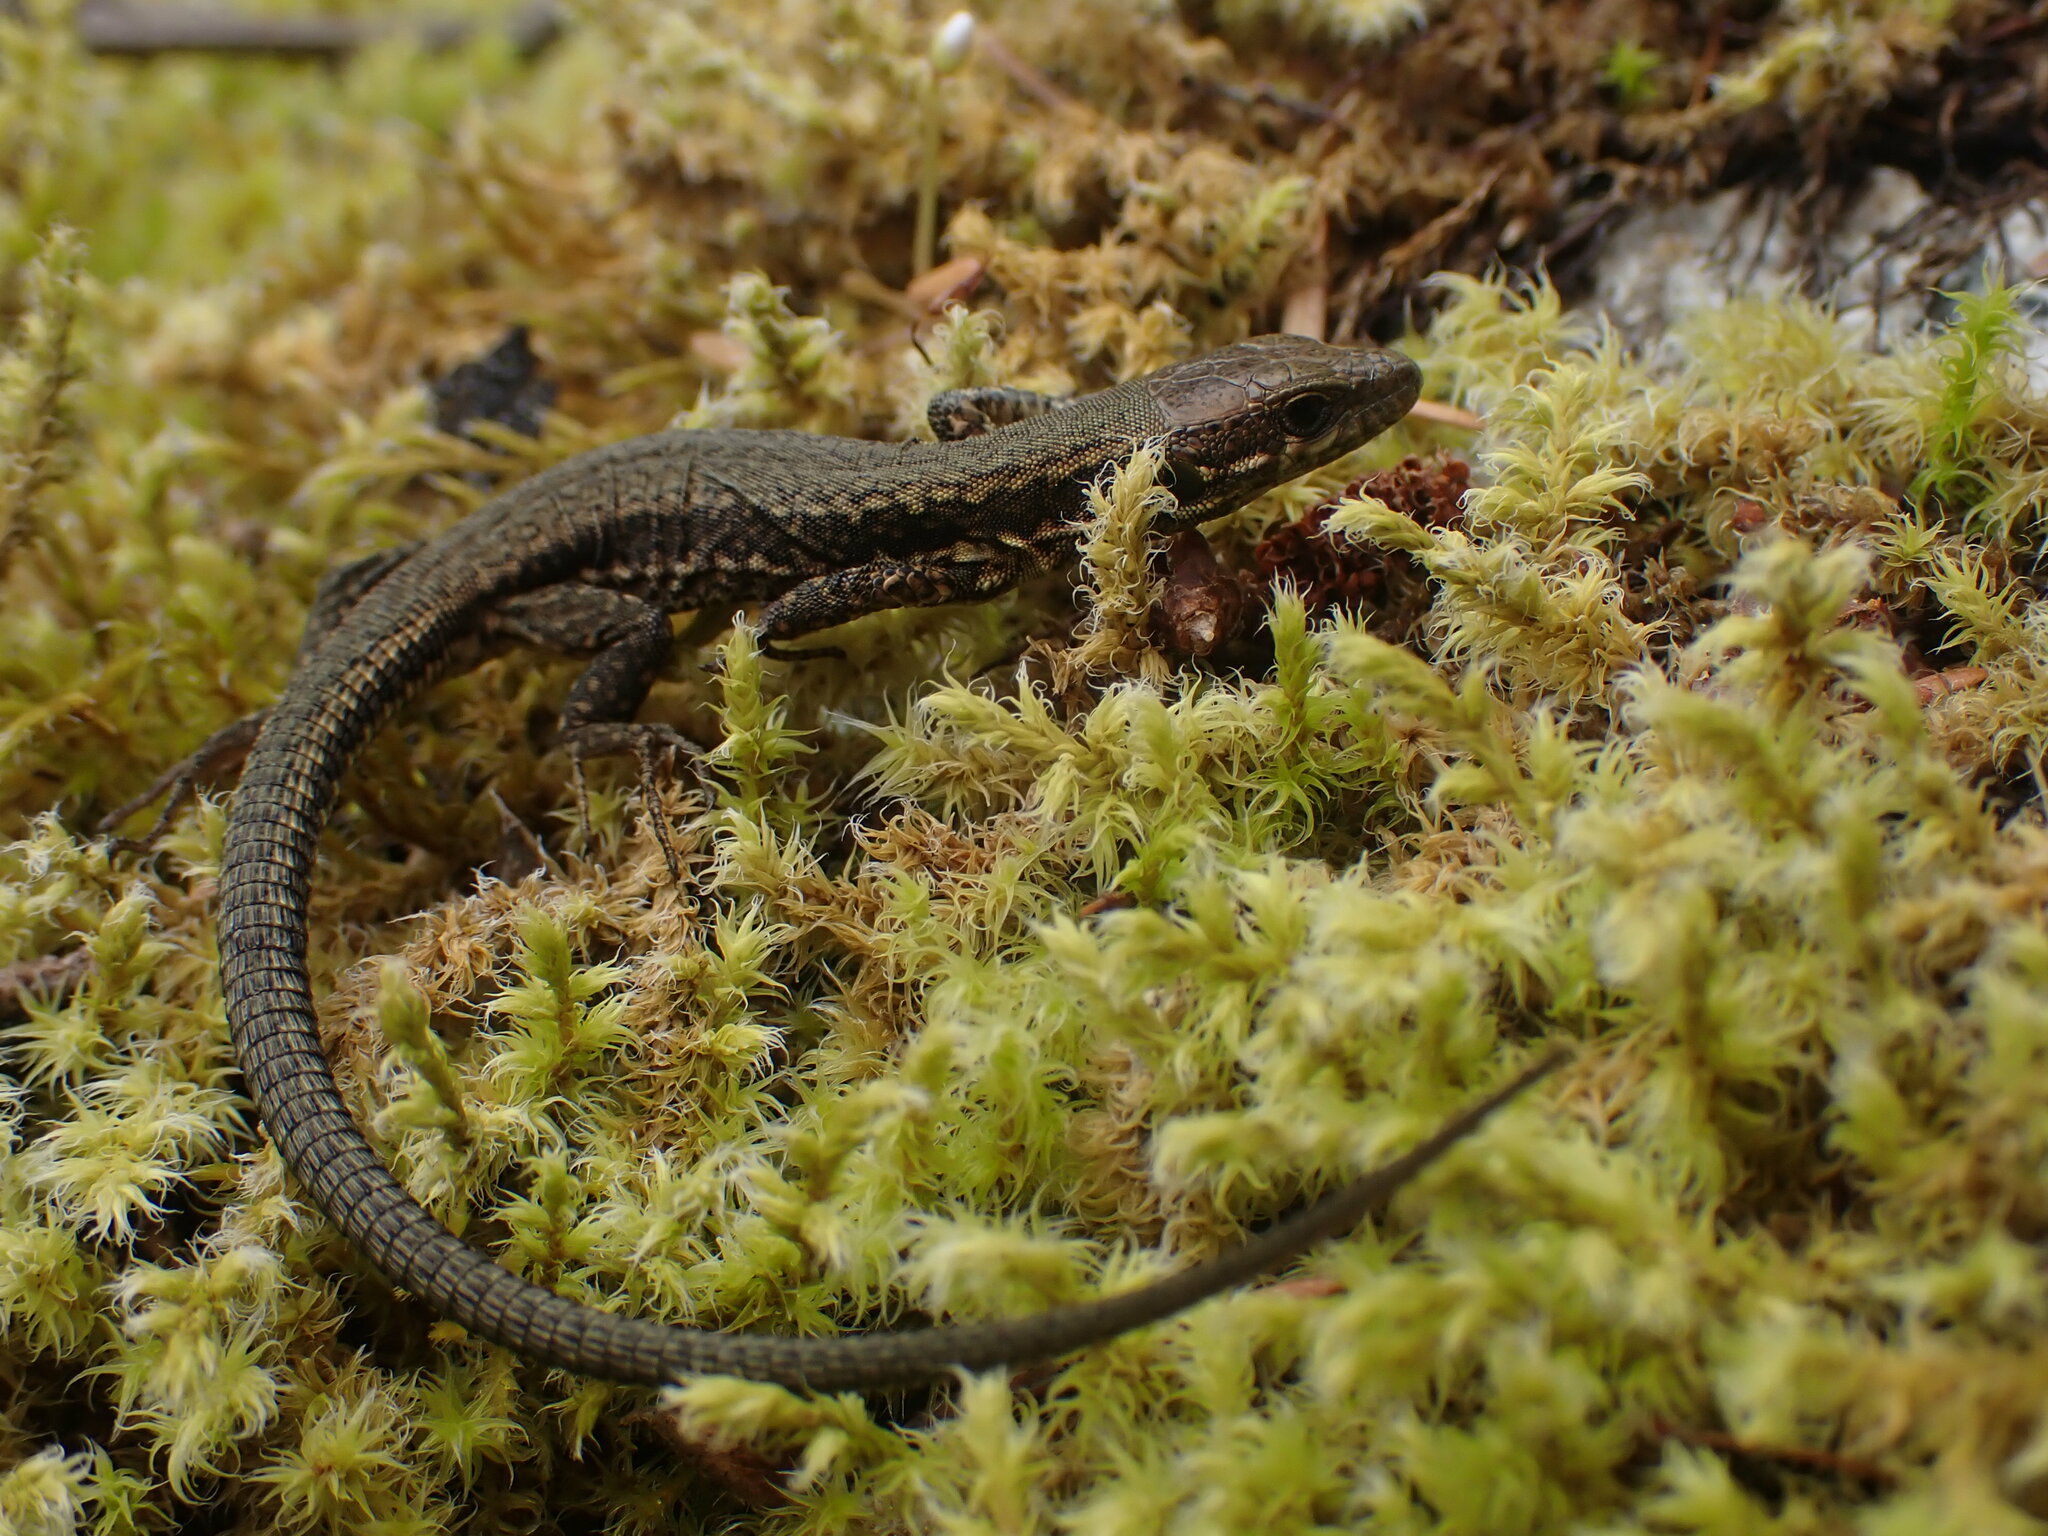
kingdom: Animalia
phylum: Chordata
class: Squamata
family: Lacertidae
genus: Podarcis
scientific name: Podarcis muralis
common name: Common wall lizard
